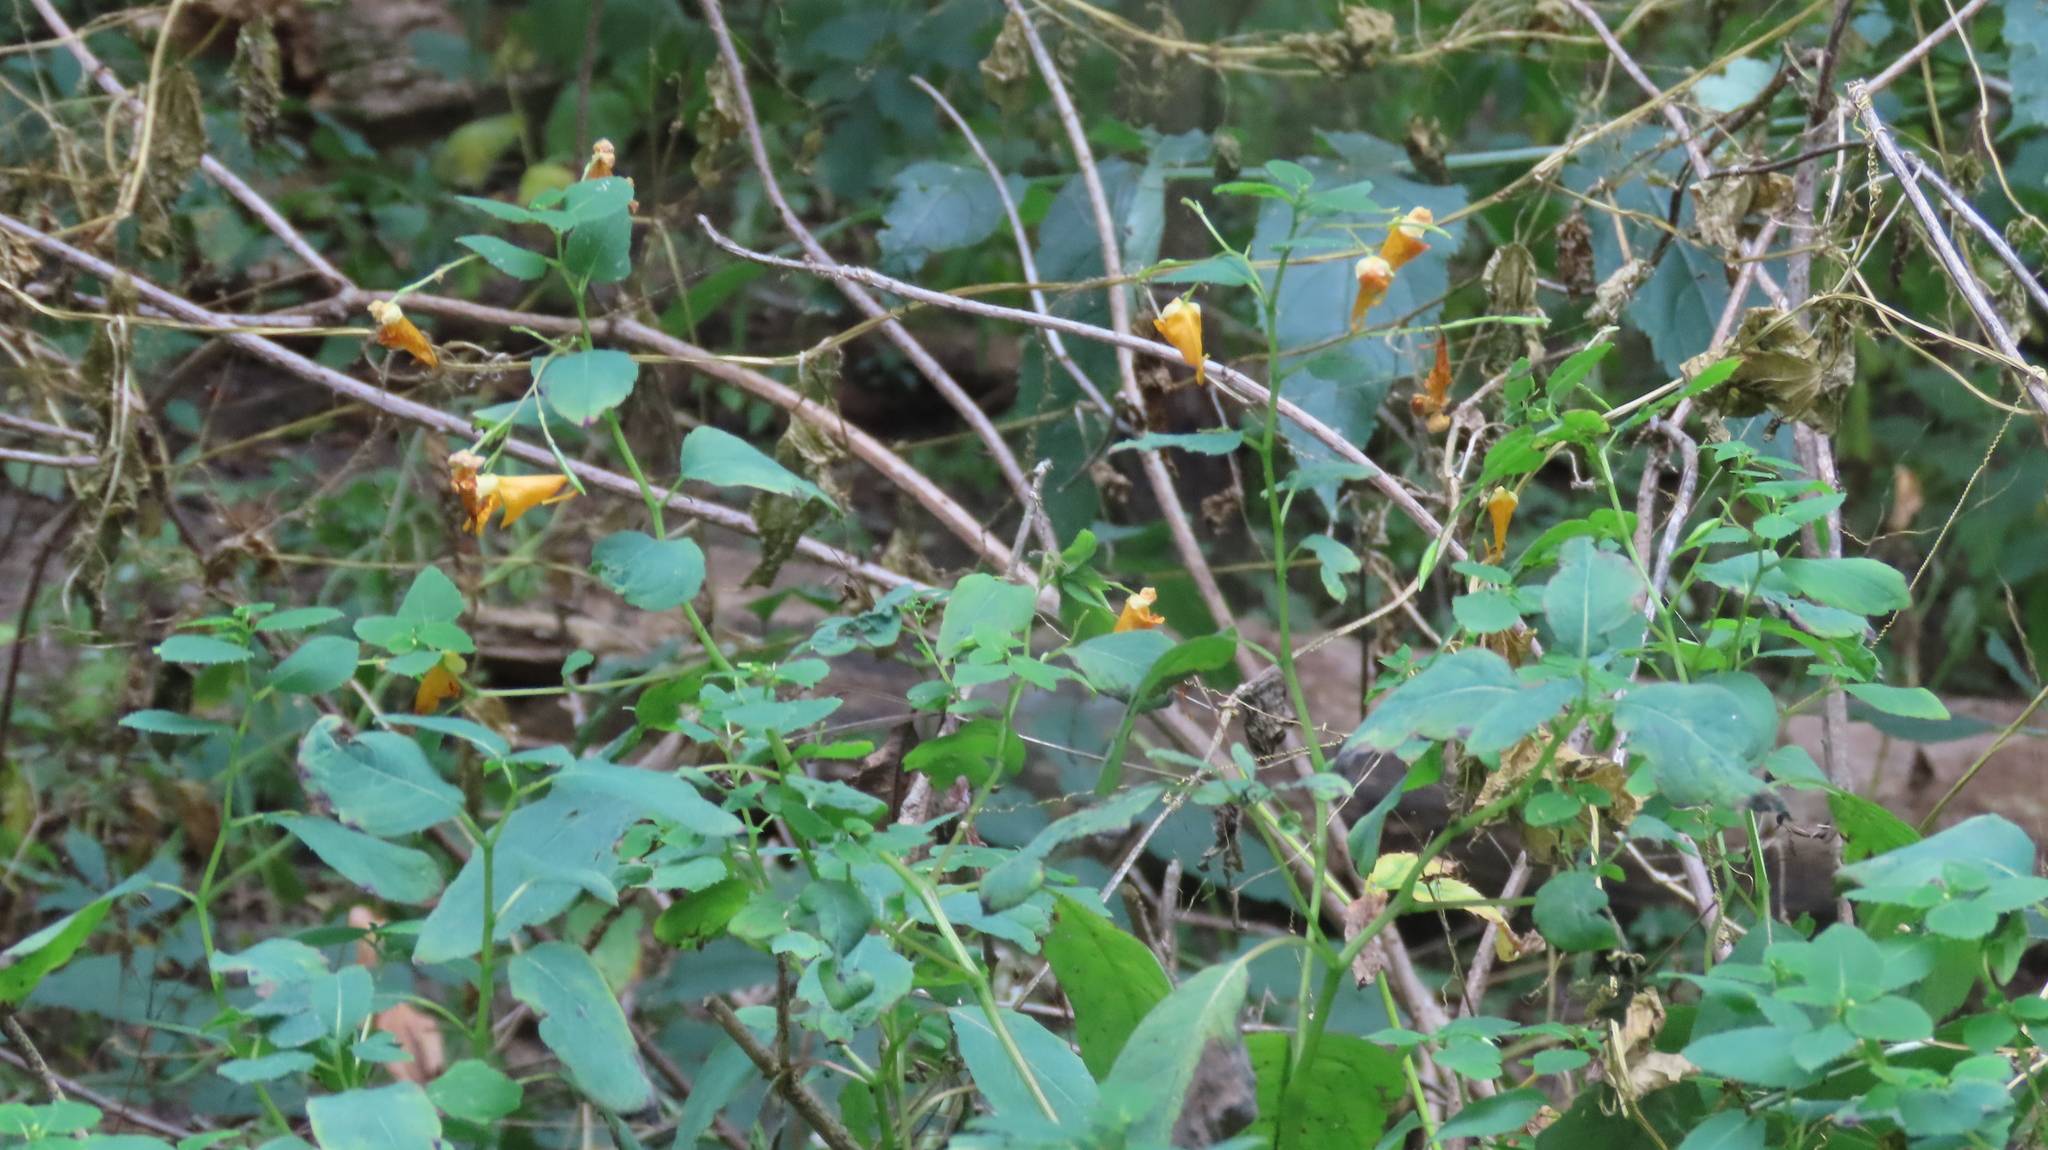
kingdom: Plantae
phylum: Tracheophyta
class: Magnoliopsida
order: Ericales
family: Balsaminaceae
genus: Impatiens
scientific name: Impatiens capensis
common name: Orange balsam
